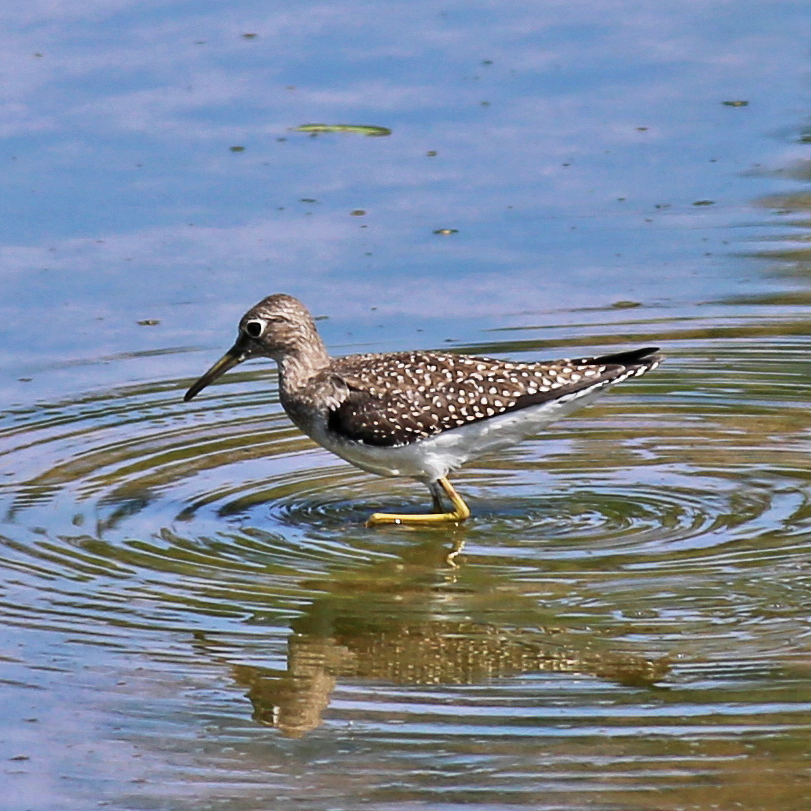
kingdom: Animalia
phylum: Chordata
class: Aves
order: Charadriiformes
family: Scolopacidae
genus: Tringa
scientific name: Tringa solitaria
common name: Solitary sandpiper
